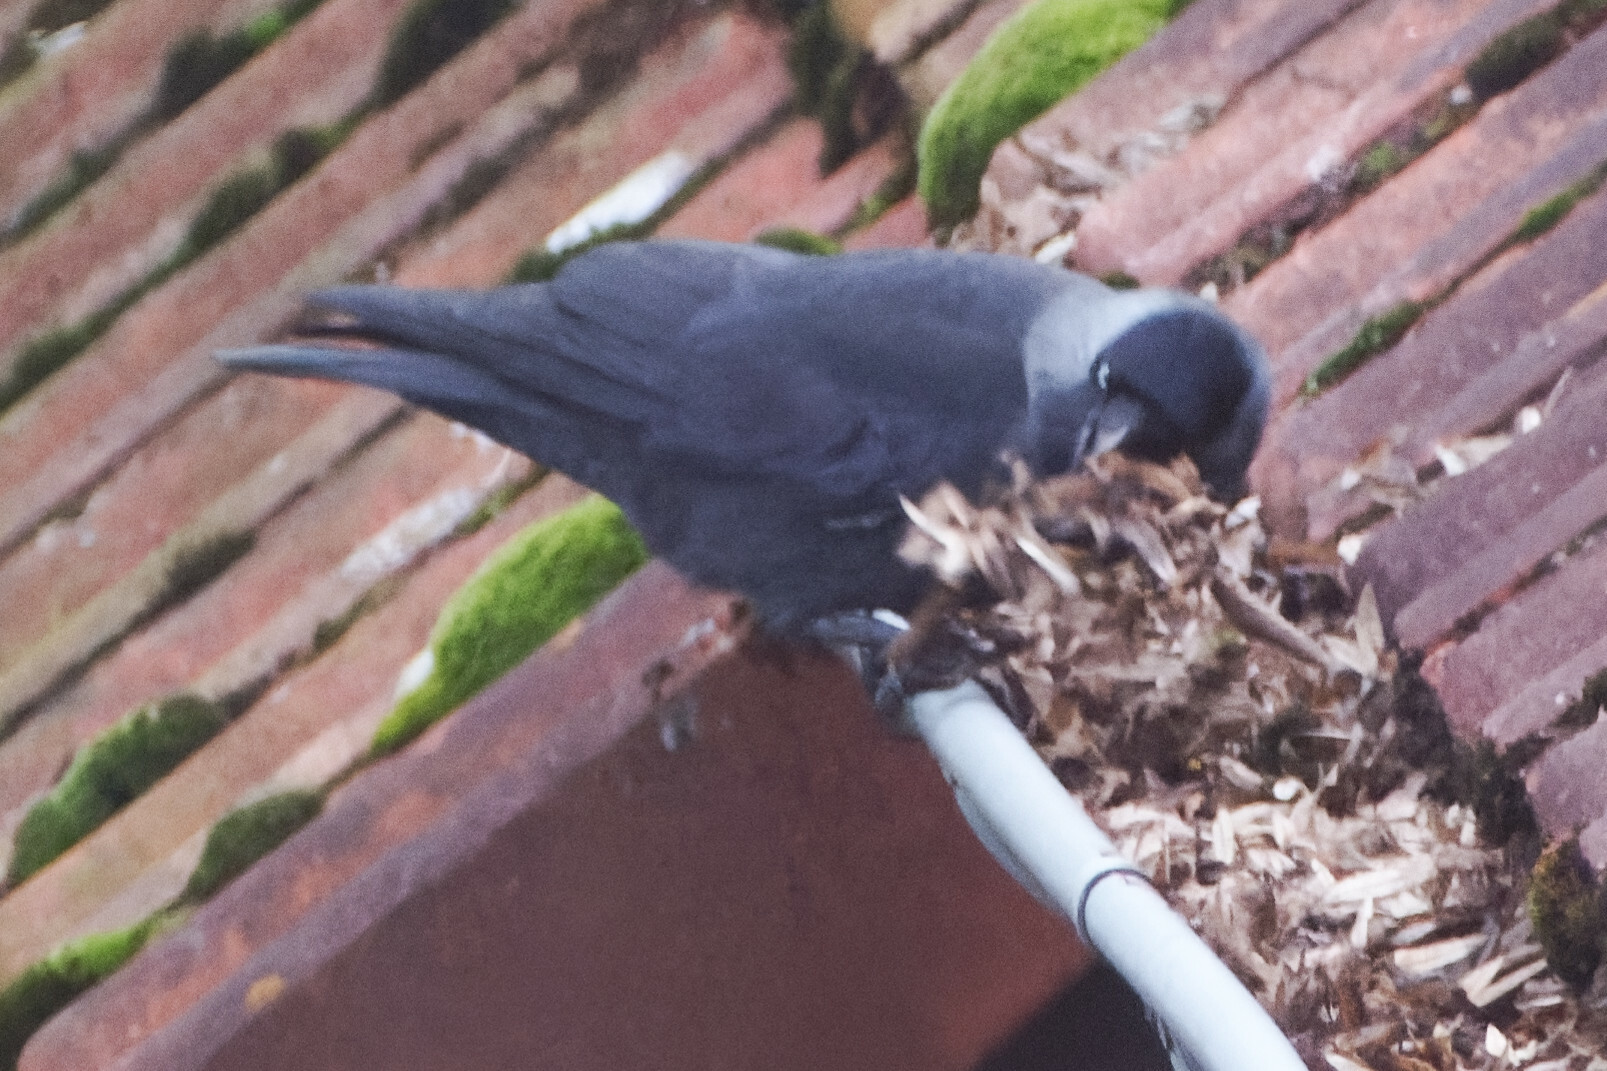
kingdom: Animalia
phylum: Chordata
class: Aves
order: Passeriformes
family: Corvidae
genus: Coloeus
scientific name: Coloeus monedula
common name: Western jackdaw
